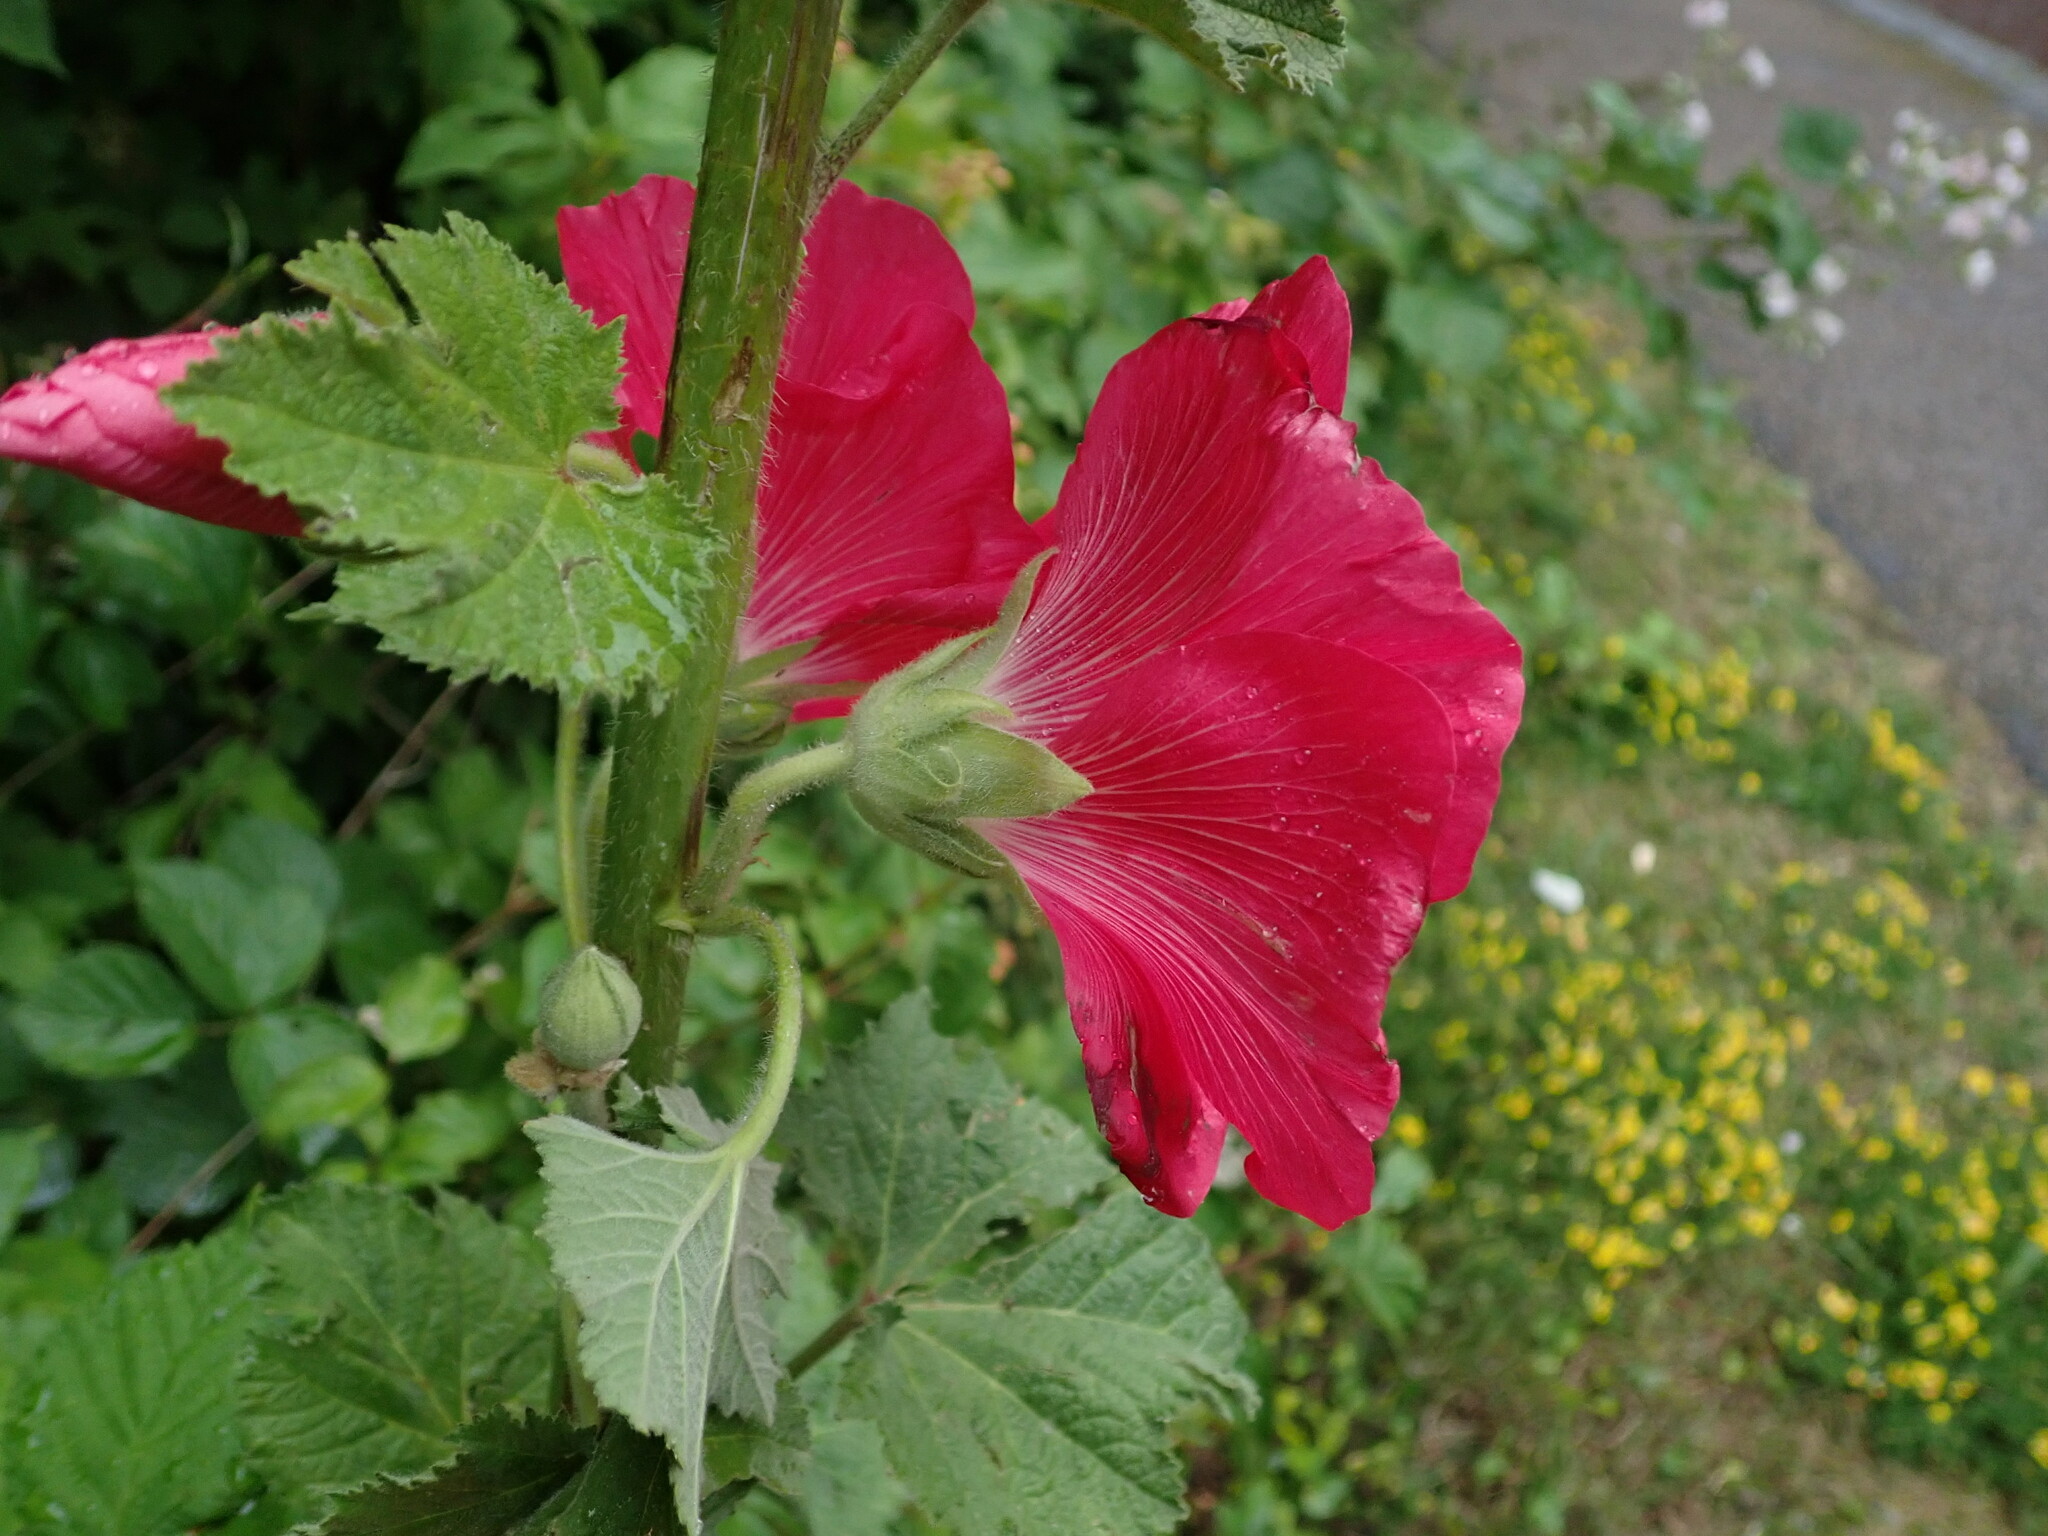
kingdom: Plantae
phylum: Tracheophyta
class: Magnoliopsida
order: Malvales
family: Malvaceae
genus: Alcea
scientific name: Alcea rosea
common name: Hollyhock
